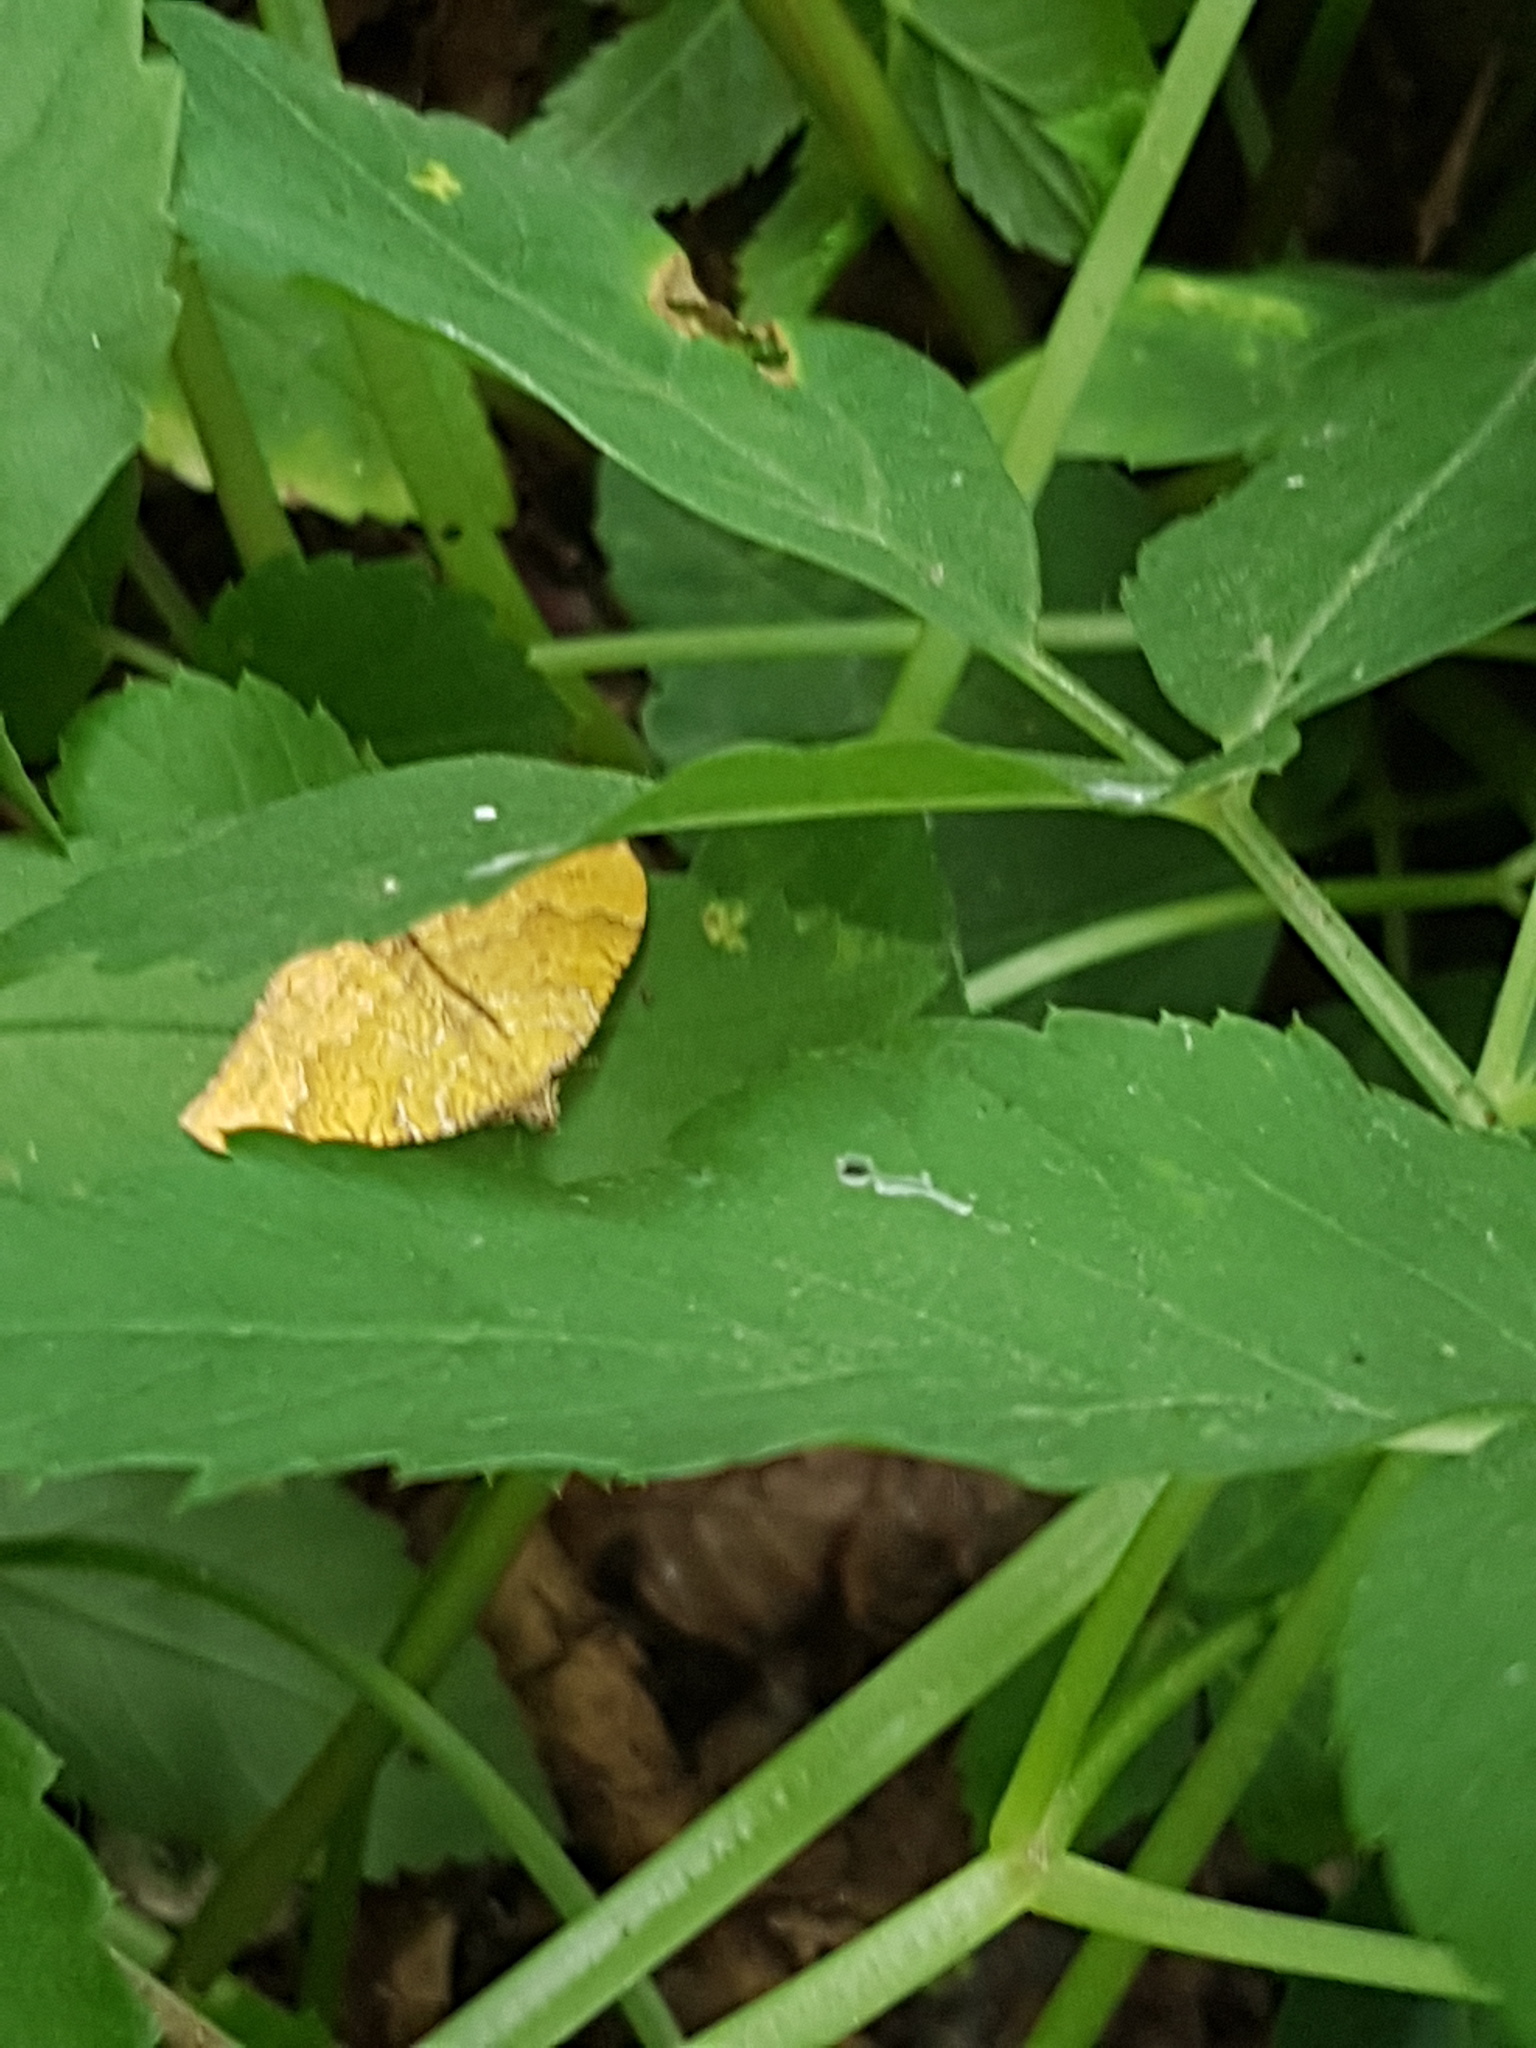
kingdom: Animalia
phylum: Arthropoda
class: Insecta
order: Lepidoptera
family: Geometridae
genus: Camptogramma
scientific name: Camptogramma bilineata
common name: Yellow shell
